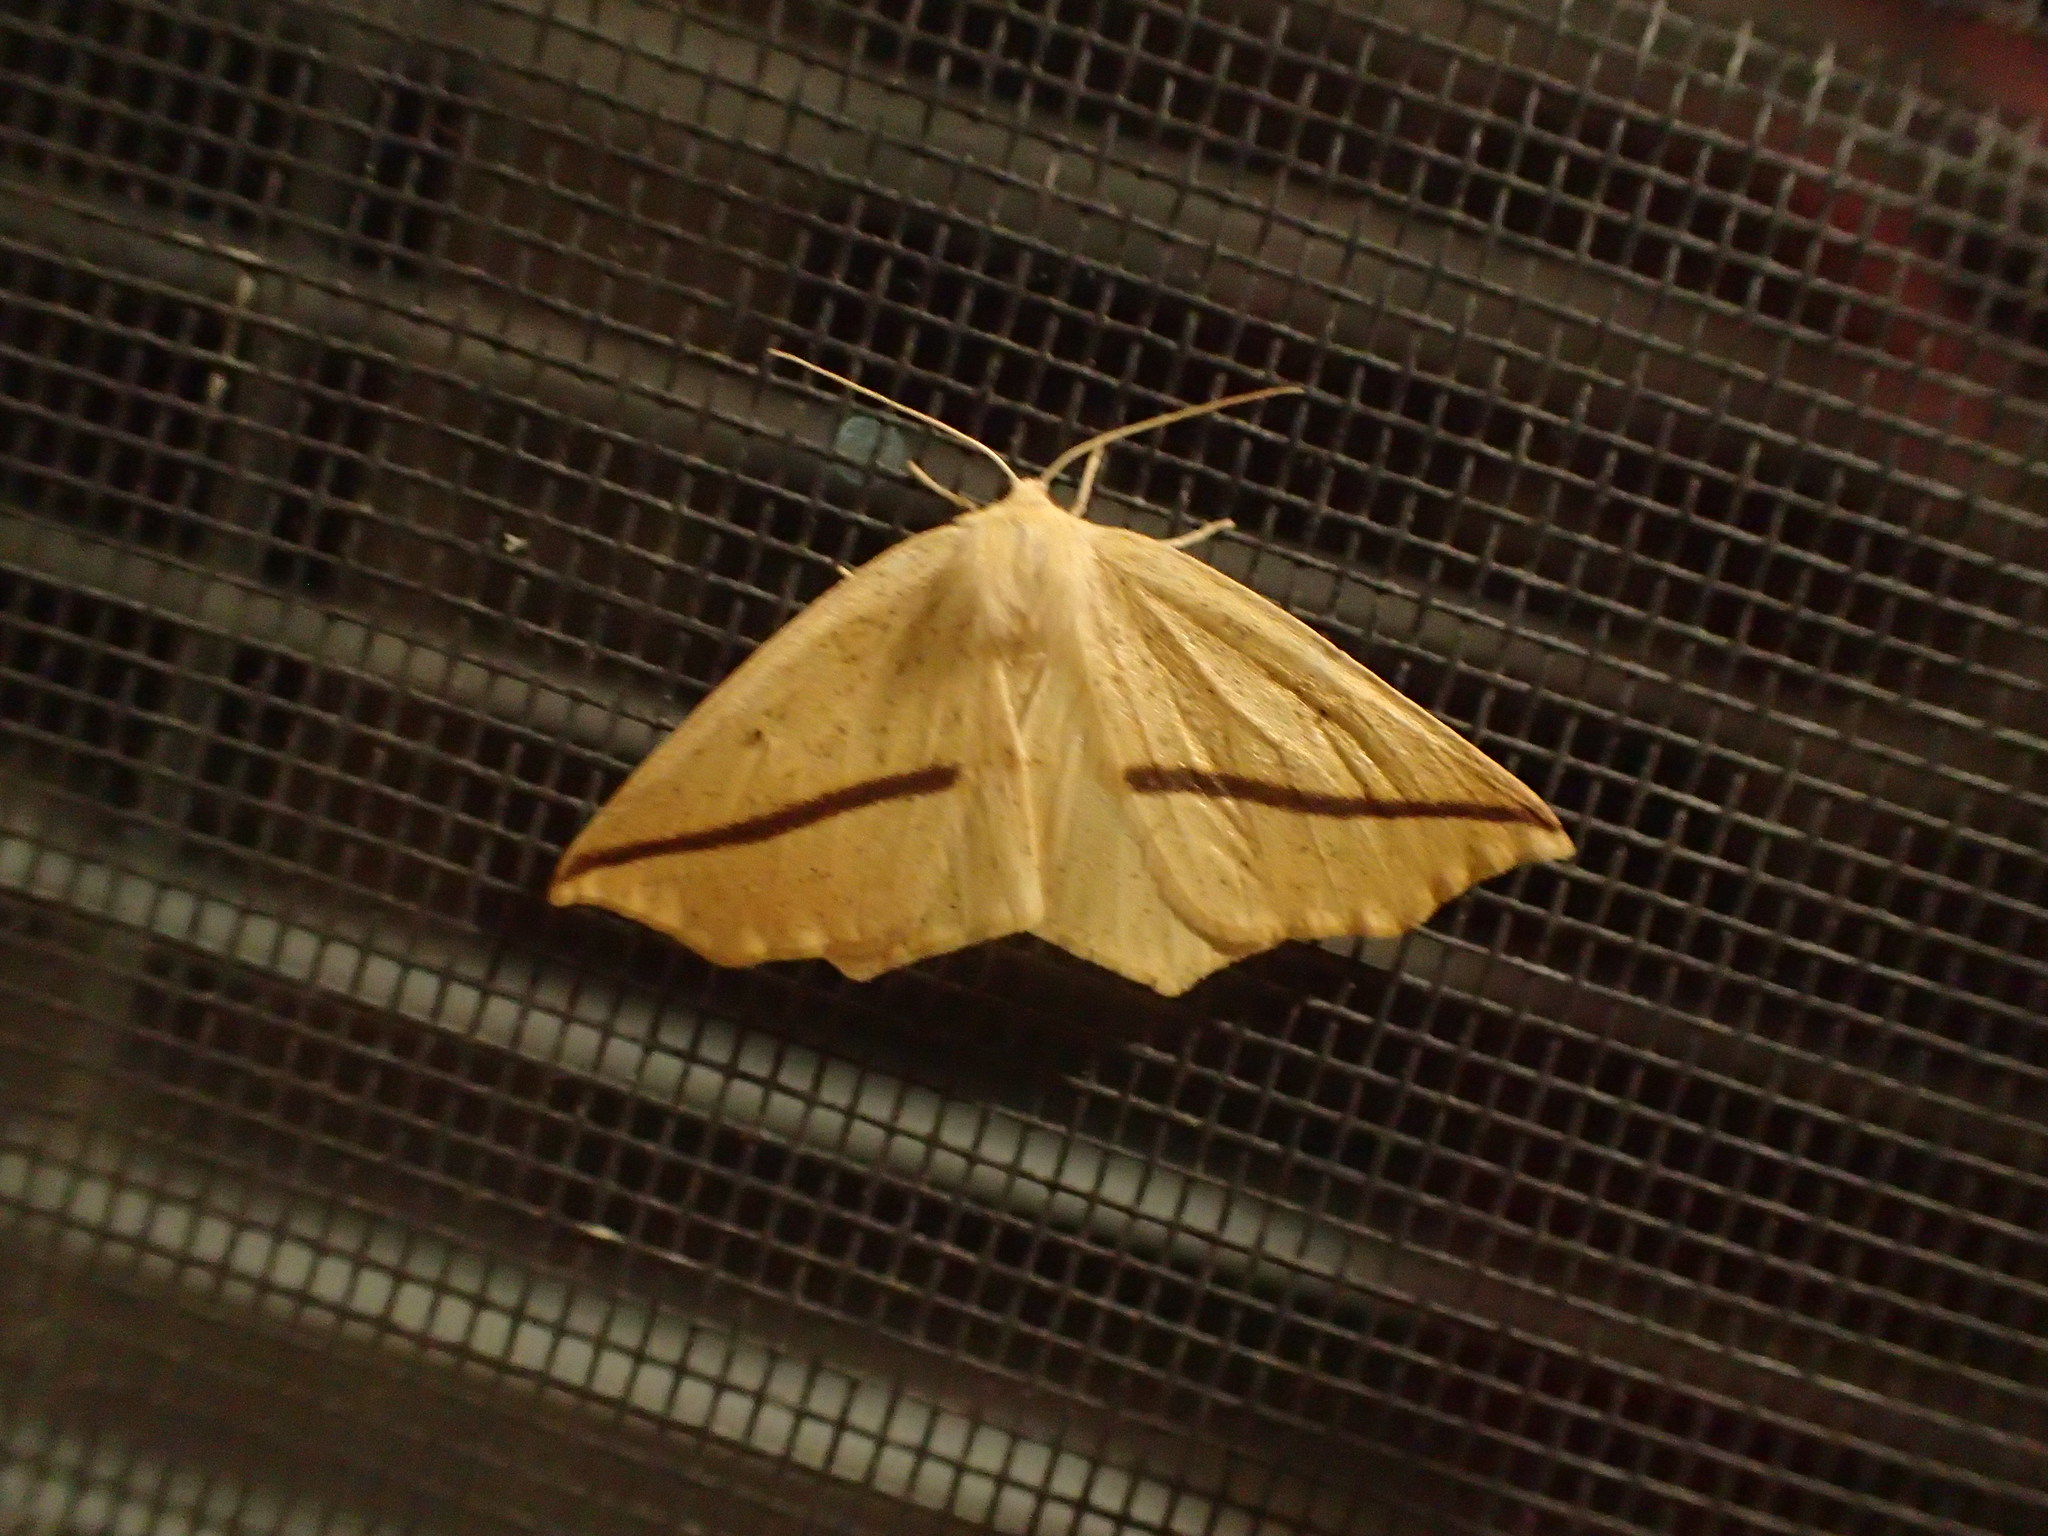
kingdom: Animalia
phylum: Arthropoda
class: Insecta
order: Lepidoptera
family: Geometridae
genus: Tetracis
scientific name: Tetracis crocallata
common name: Yellow slant-line
